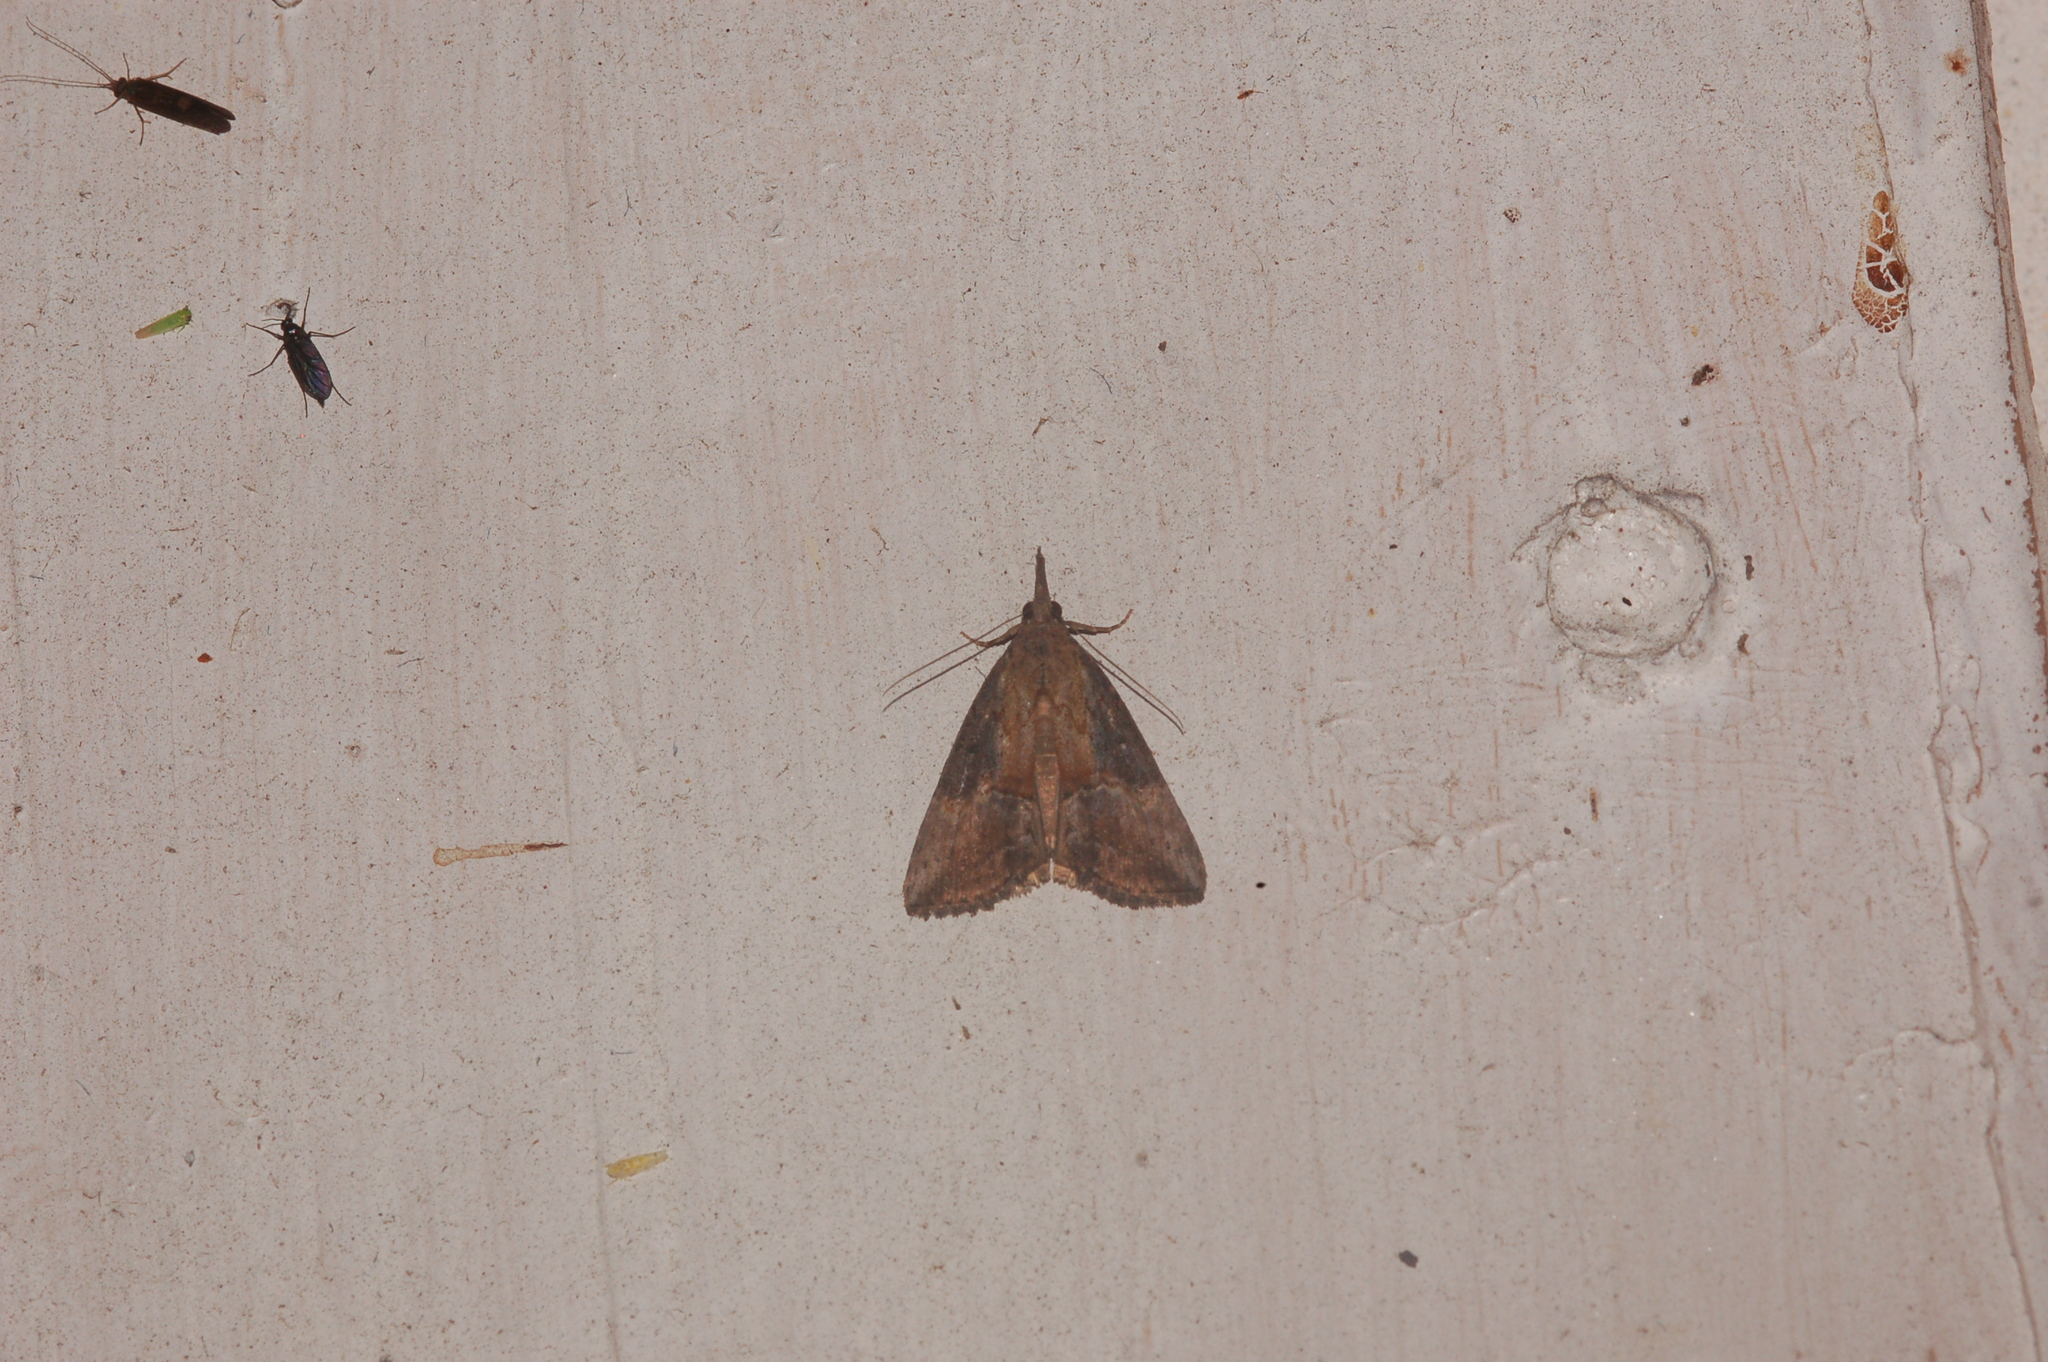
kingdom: Animalia
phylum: Arthropoda
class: Insecta
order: Lepidoptera
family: Erebidae
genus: Hypena
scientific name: Hypena scabra
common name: Green cloverworm
